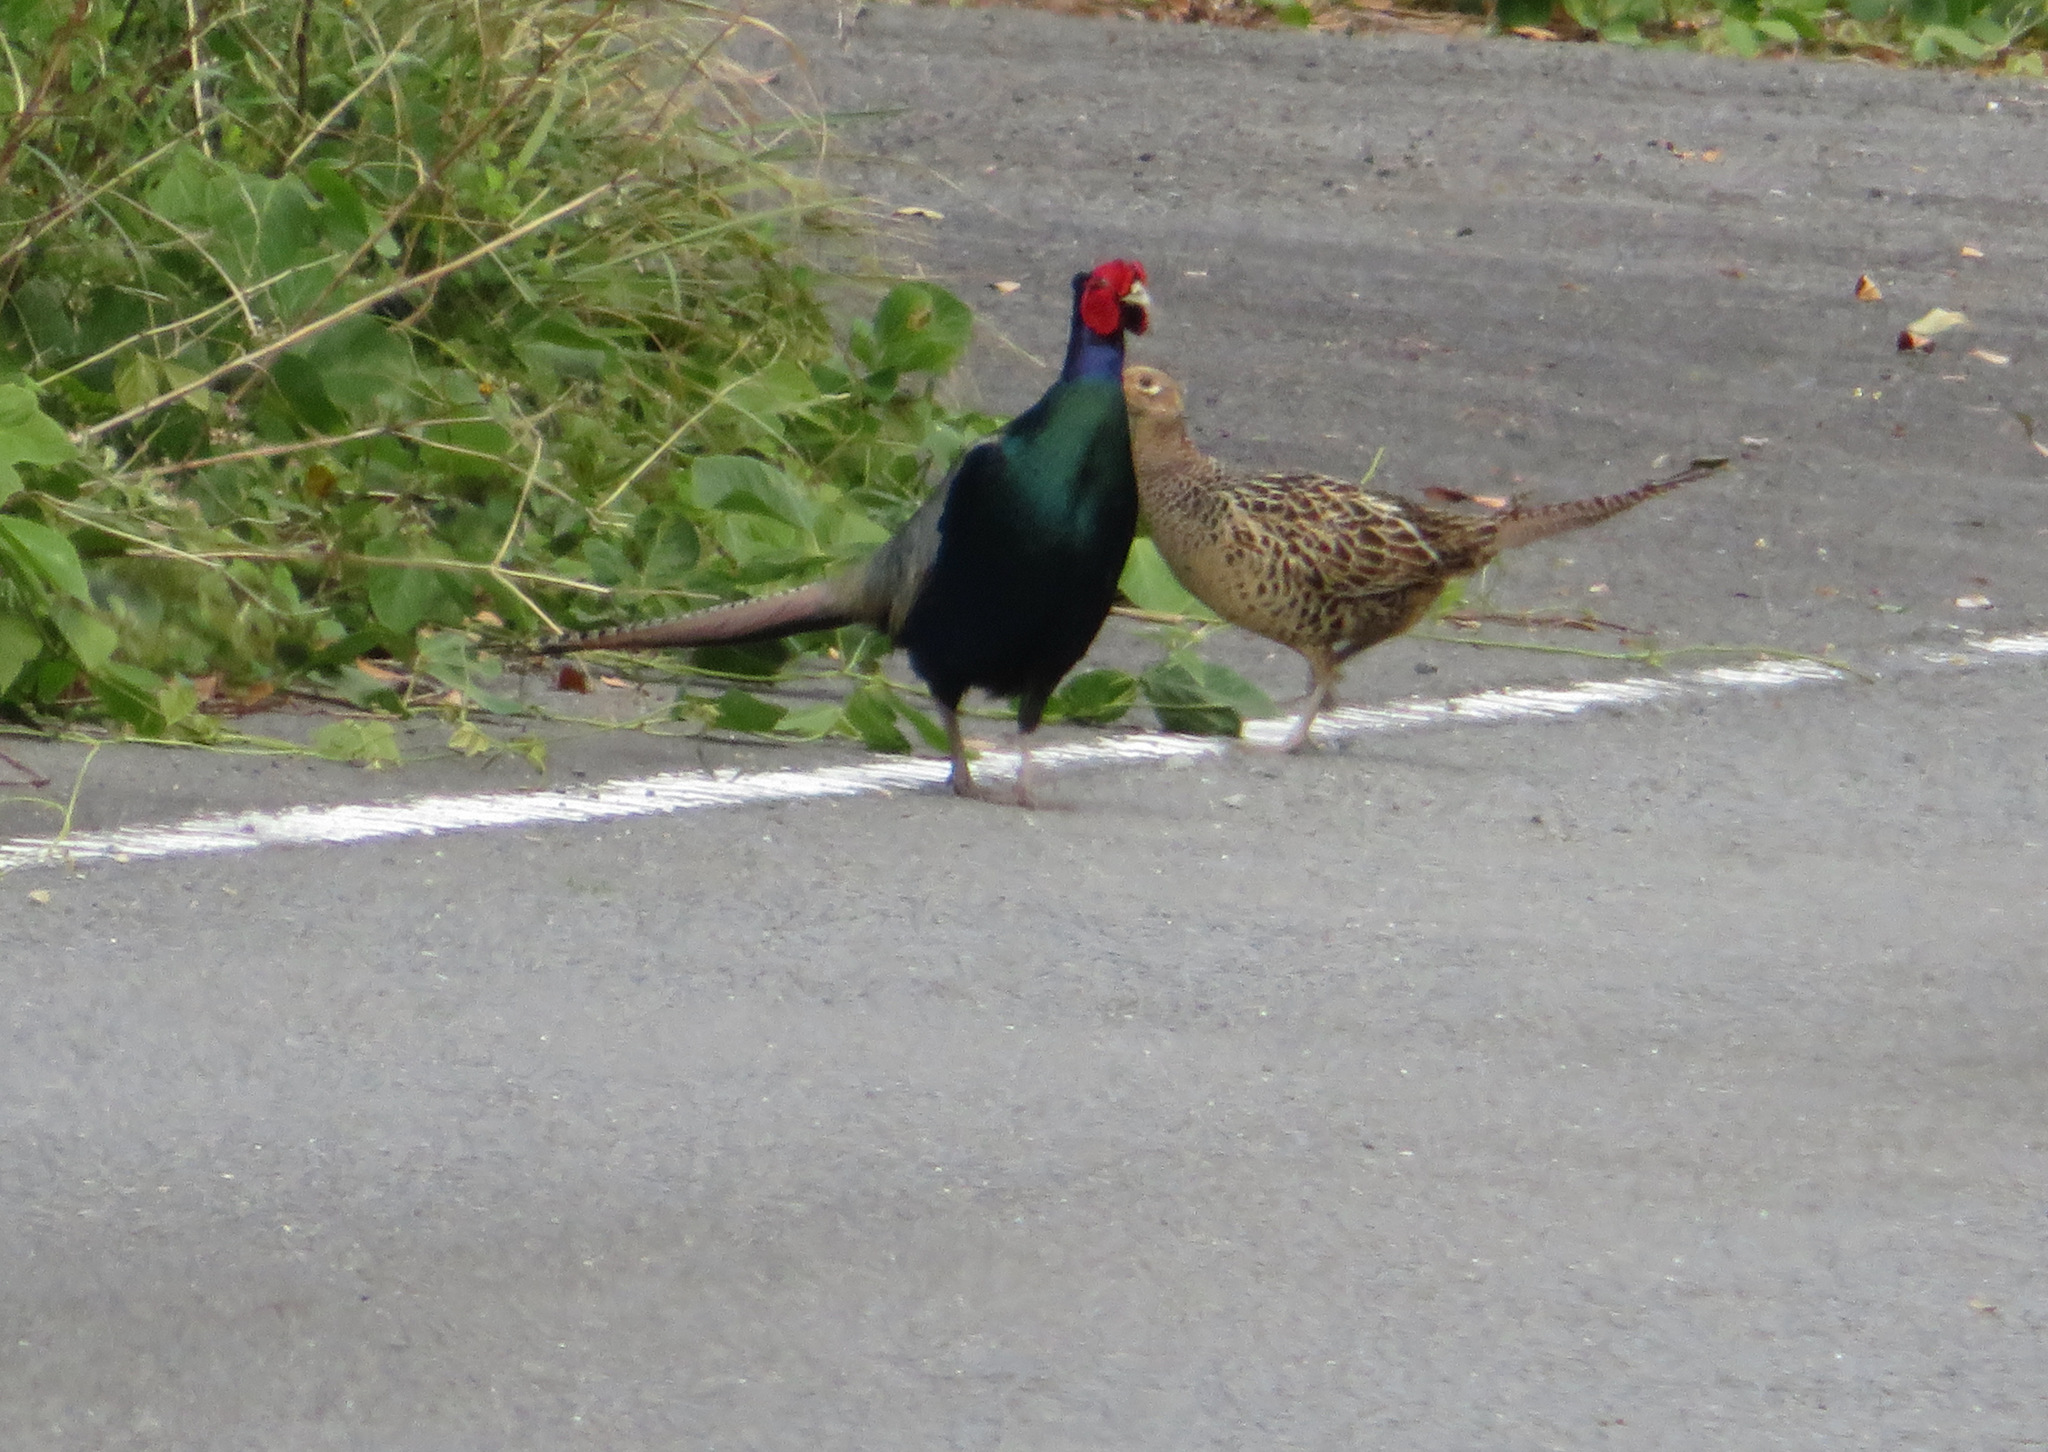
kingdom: Animalia
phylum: Chordata
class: Aves
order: Galliformes
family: Phasianidae
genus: Phasianus
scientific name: Phasianus versicolor
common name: Green pheasant
